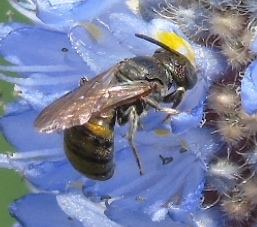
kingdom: Animalia
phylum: Arthropoda
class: Insecta
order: Hymenoptera
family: Apidae
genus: Ceratina
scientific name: Ceratina
